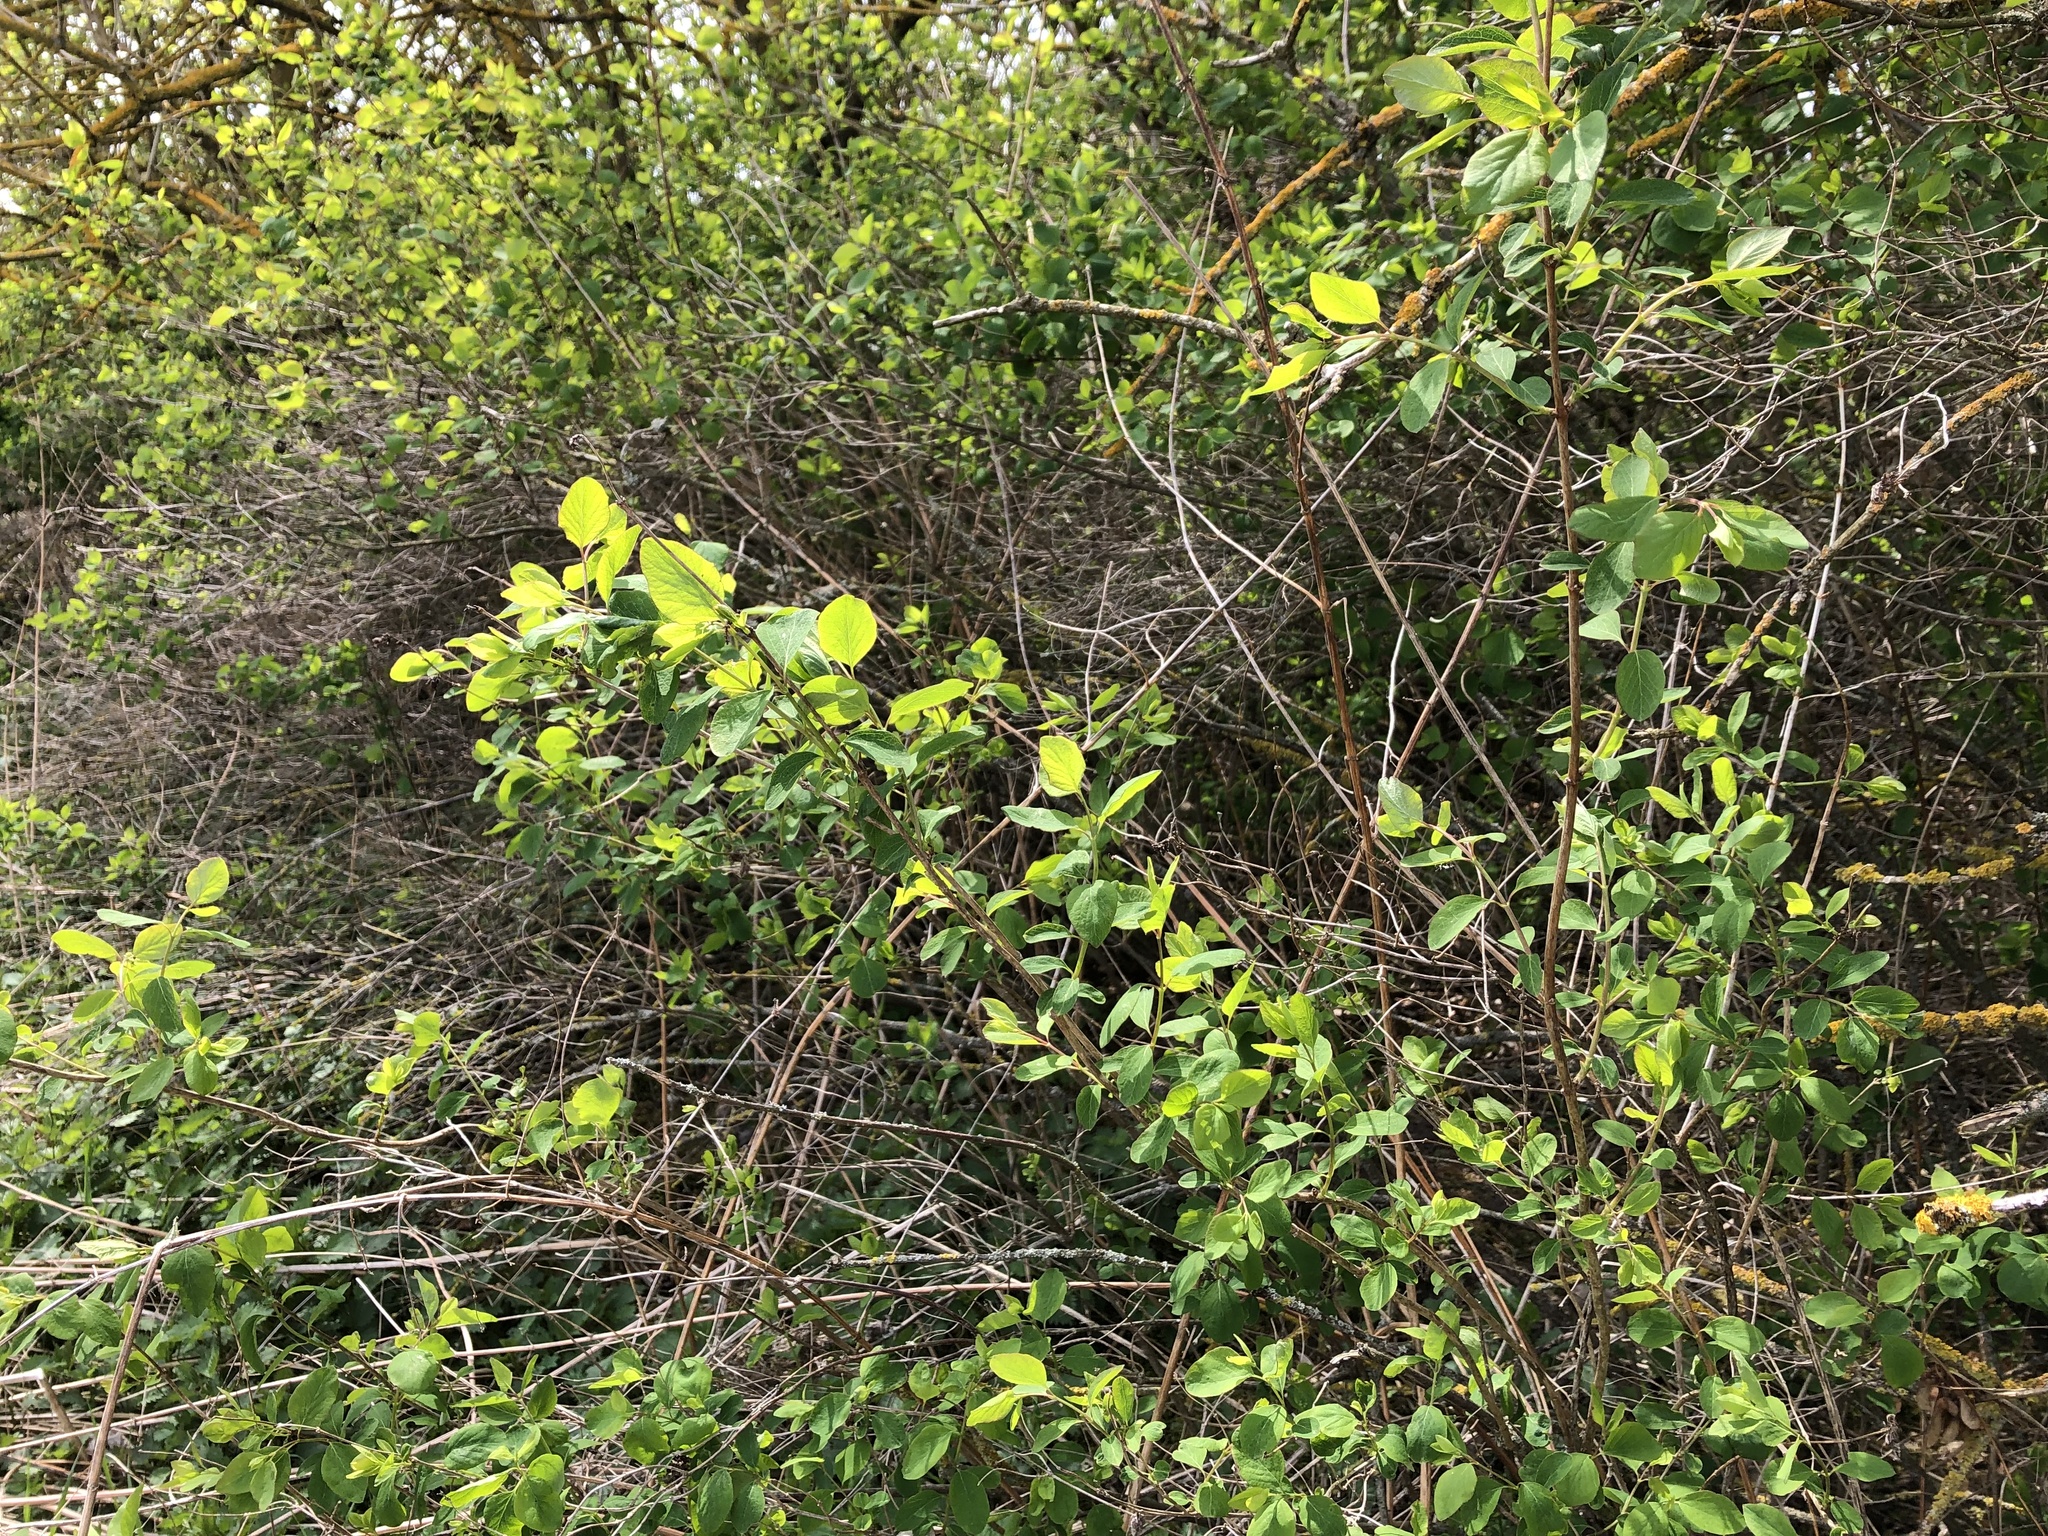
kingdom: Plantae
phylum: Tracheophyta
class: Magnoliopsida
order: Dipsacales
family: Caprifoliaceae
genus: Symphoricarpos
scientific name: Symphoricarpos albus
